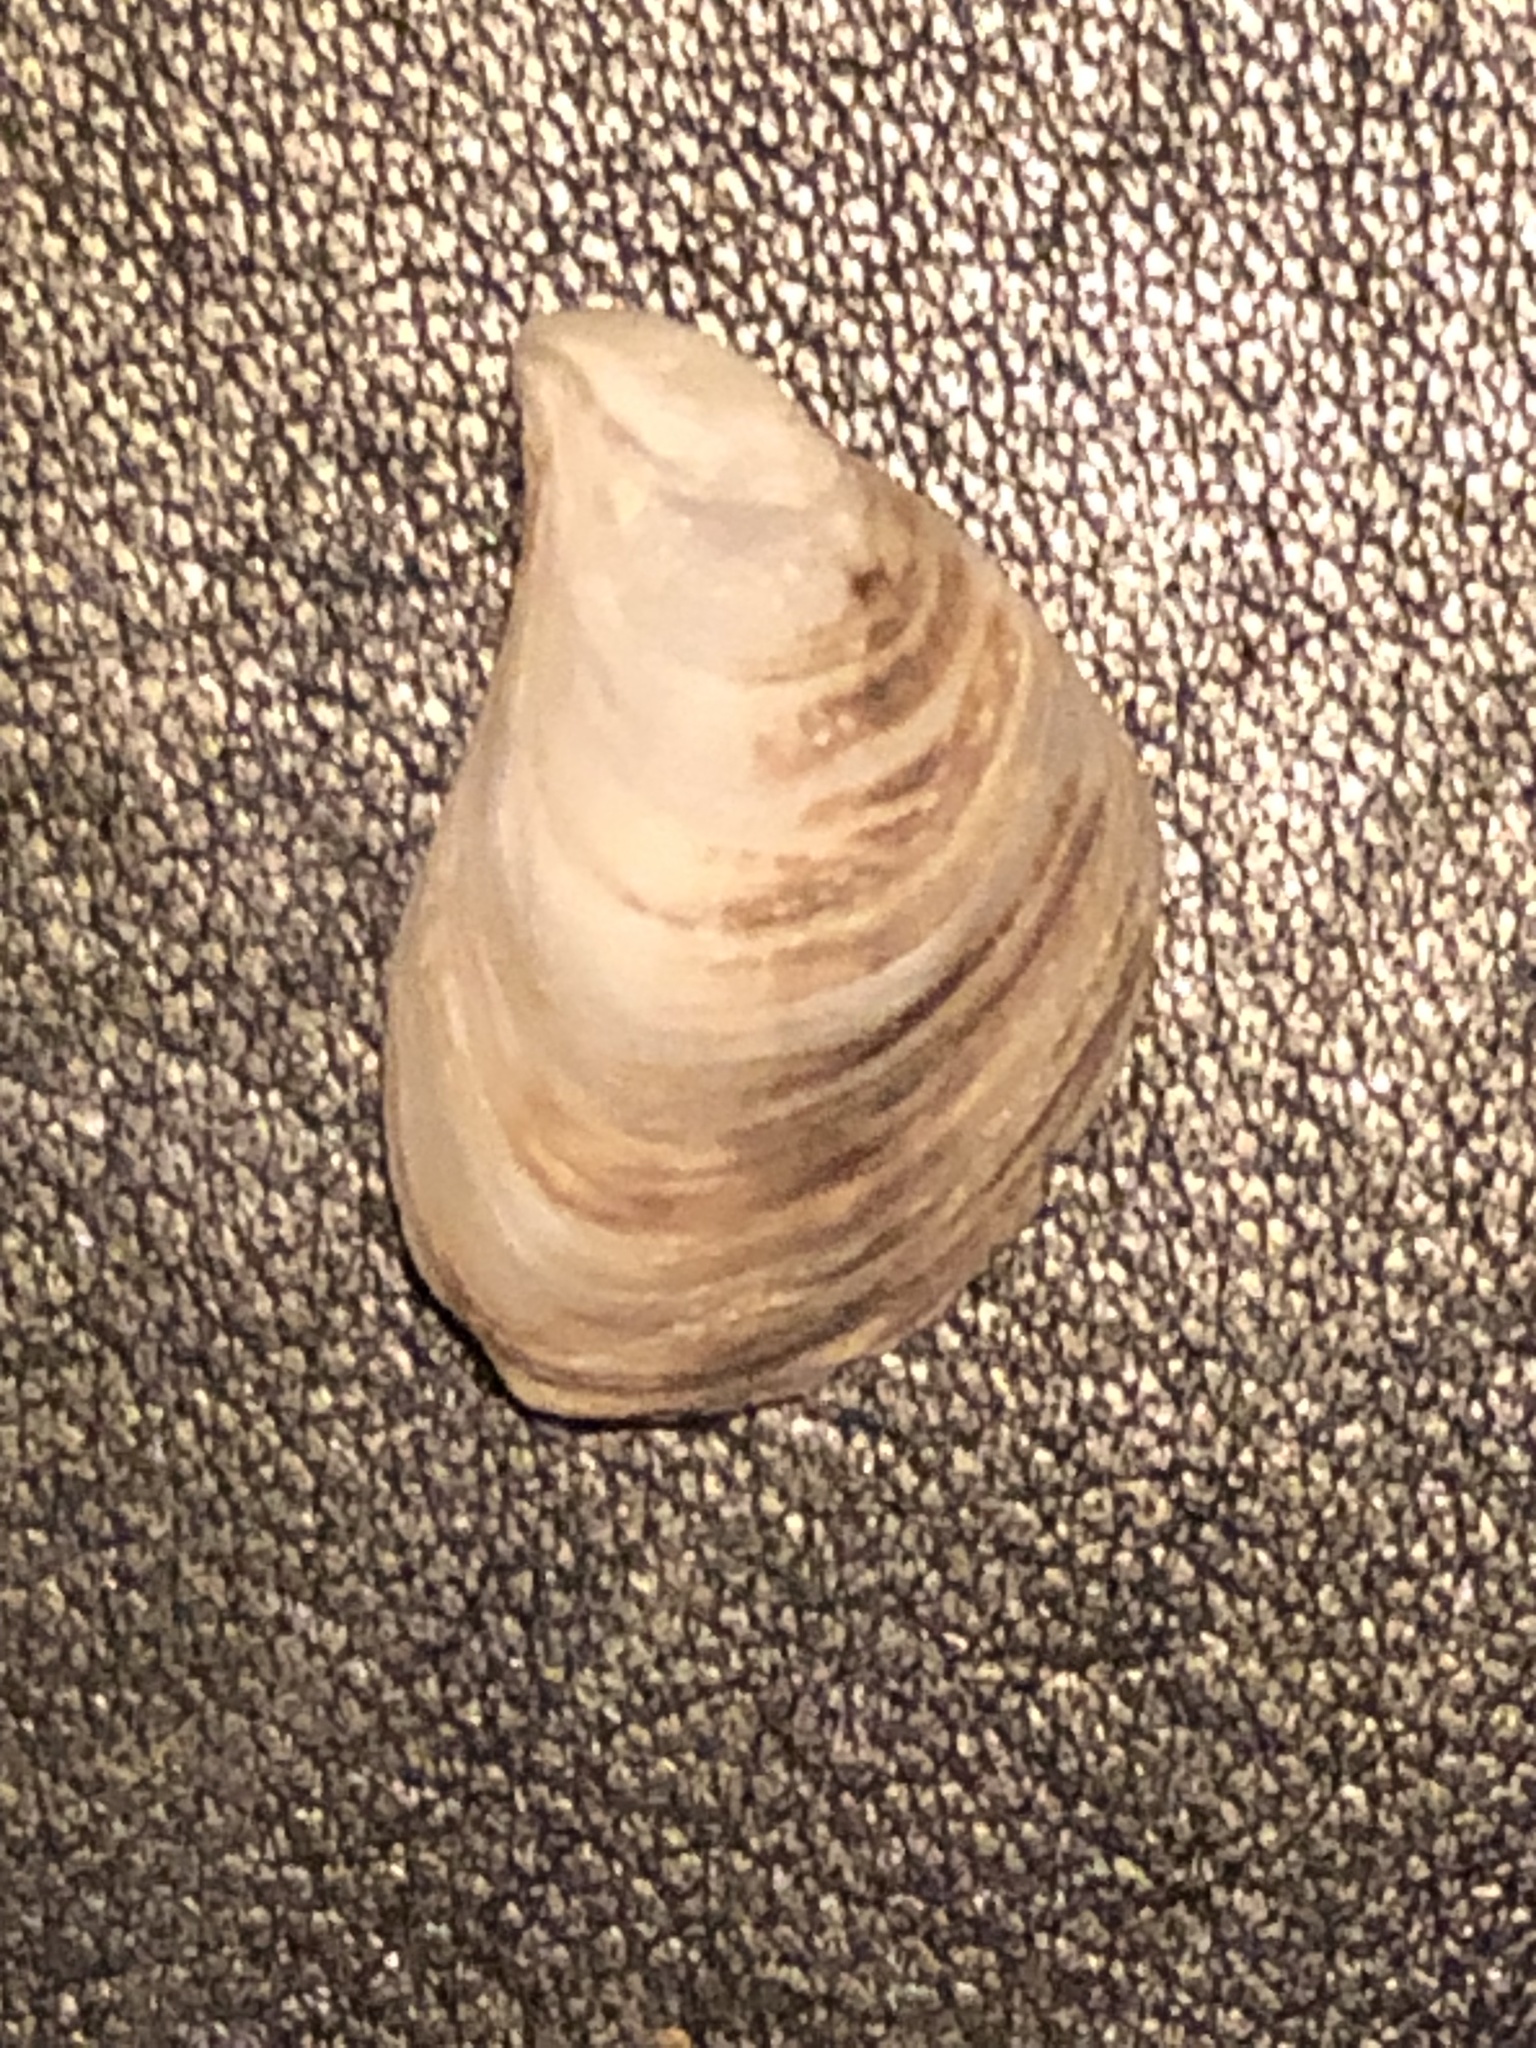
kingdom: Animalia
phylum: Mollusca
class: Bivalvia
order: Myida
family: Dreissenidae
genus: Dreissena
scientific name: Dreissena bugensis
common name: Quagga mussel
